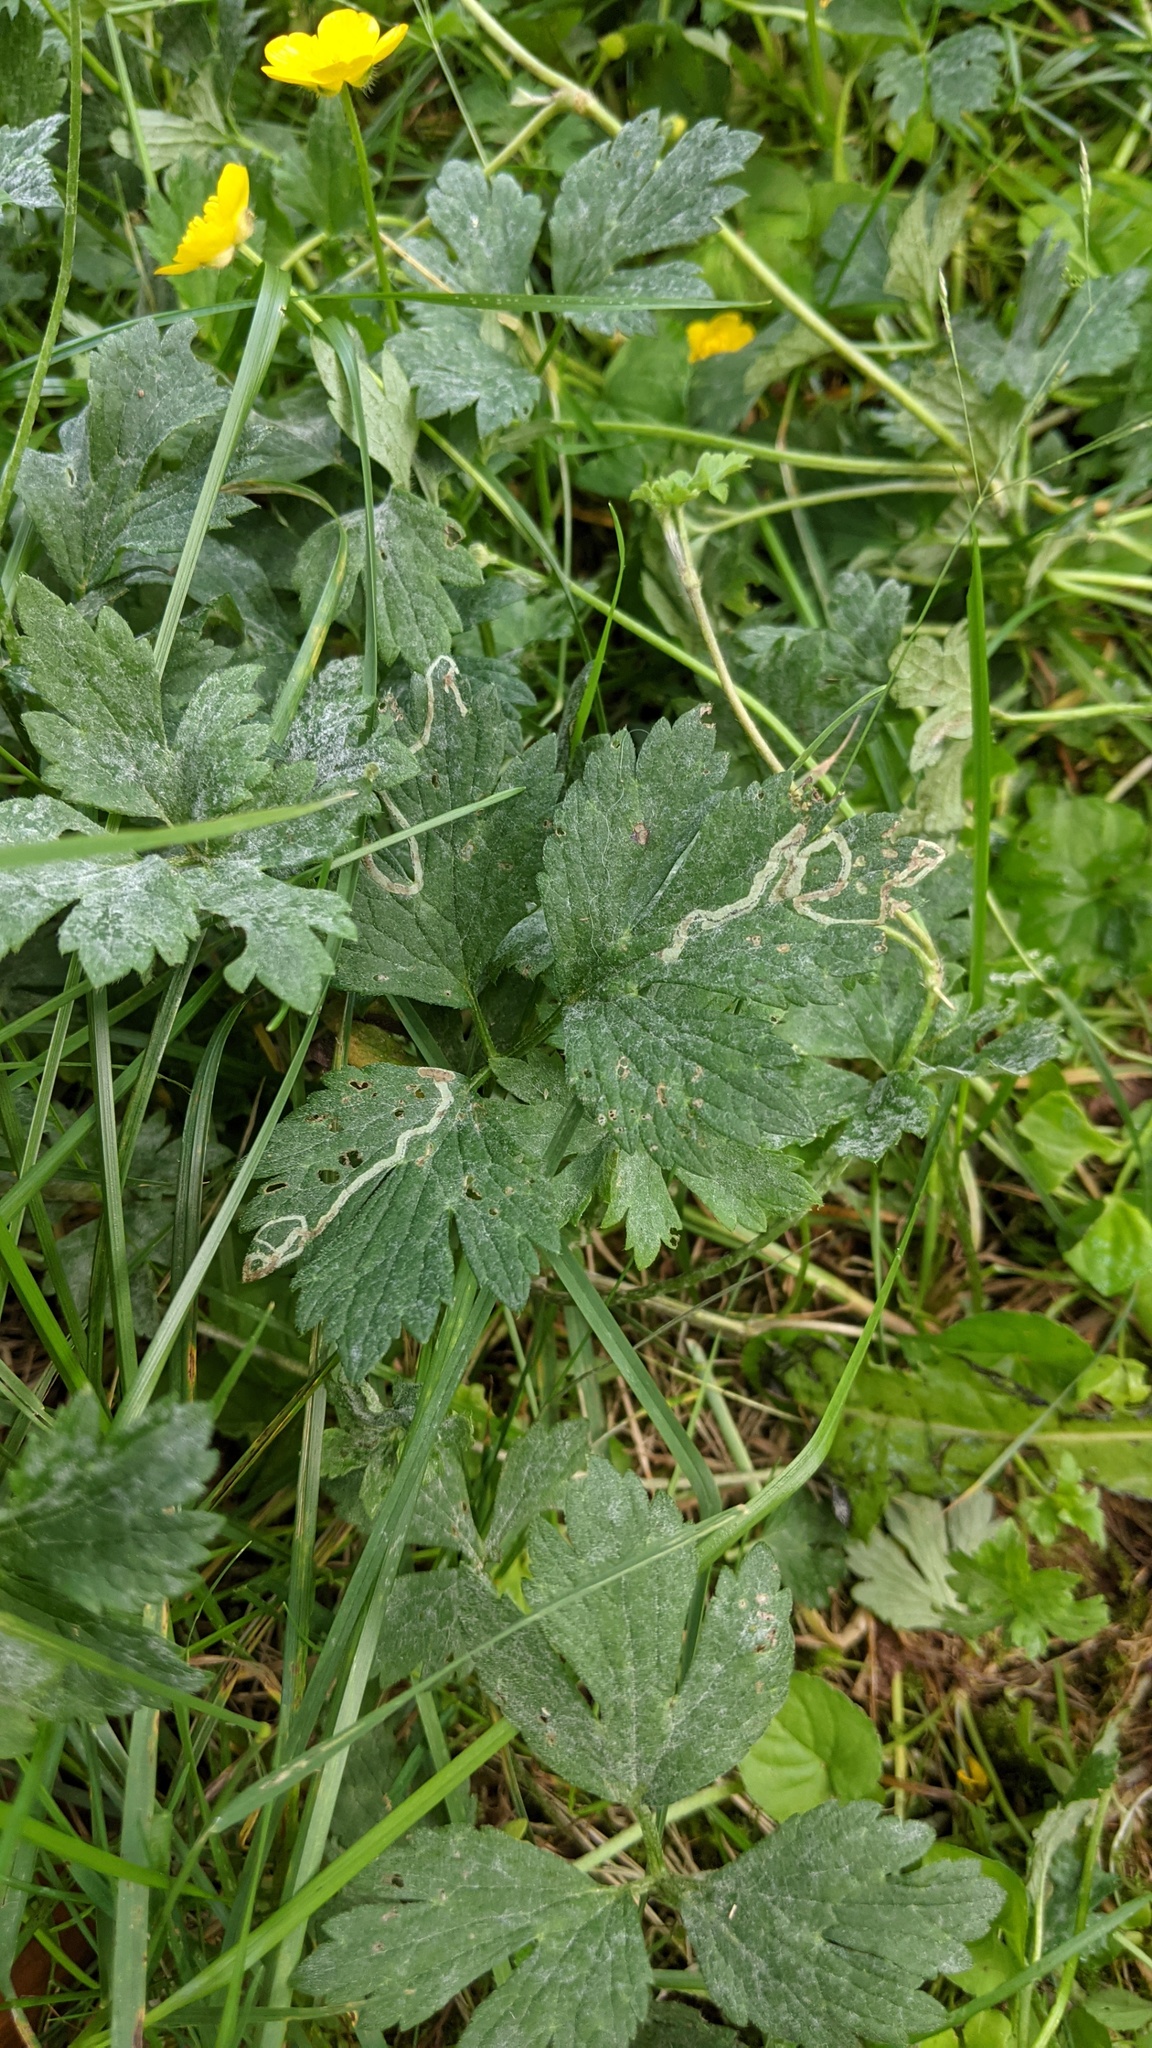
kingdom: Animalia
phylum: Arthropoda
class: Insecta
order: Diptera
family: Agromyzidae
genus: Phytomyza
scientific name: Phytomyza ranunculi
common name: Leaf-miner fly
